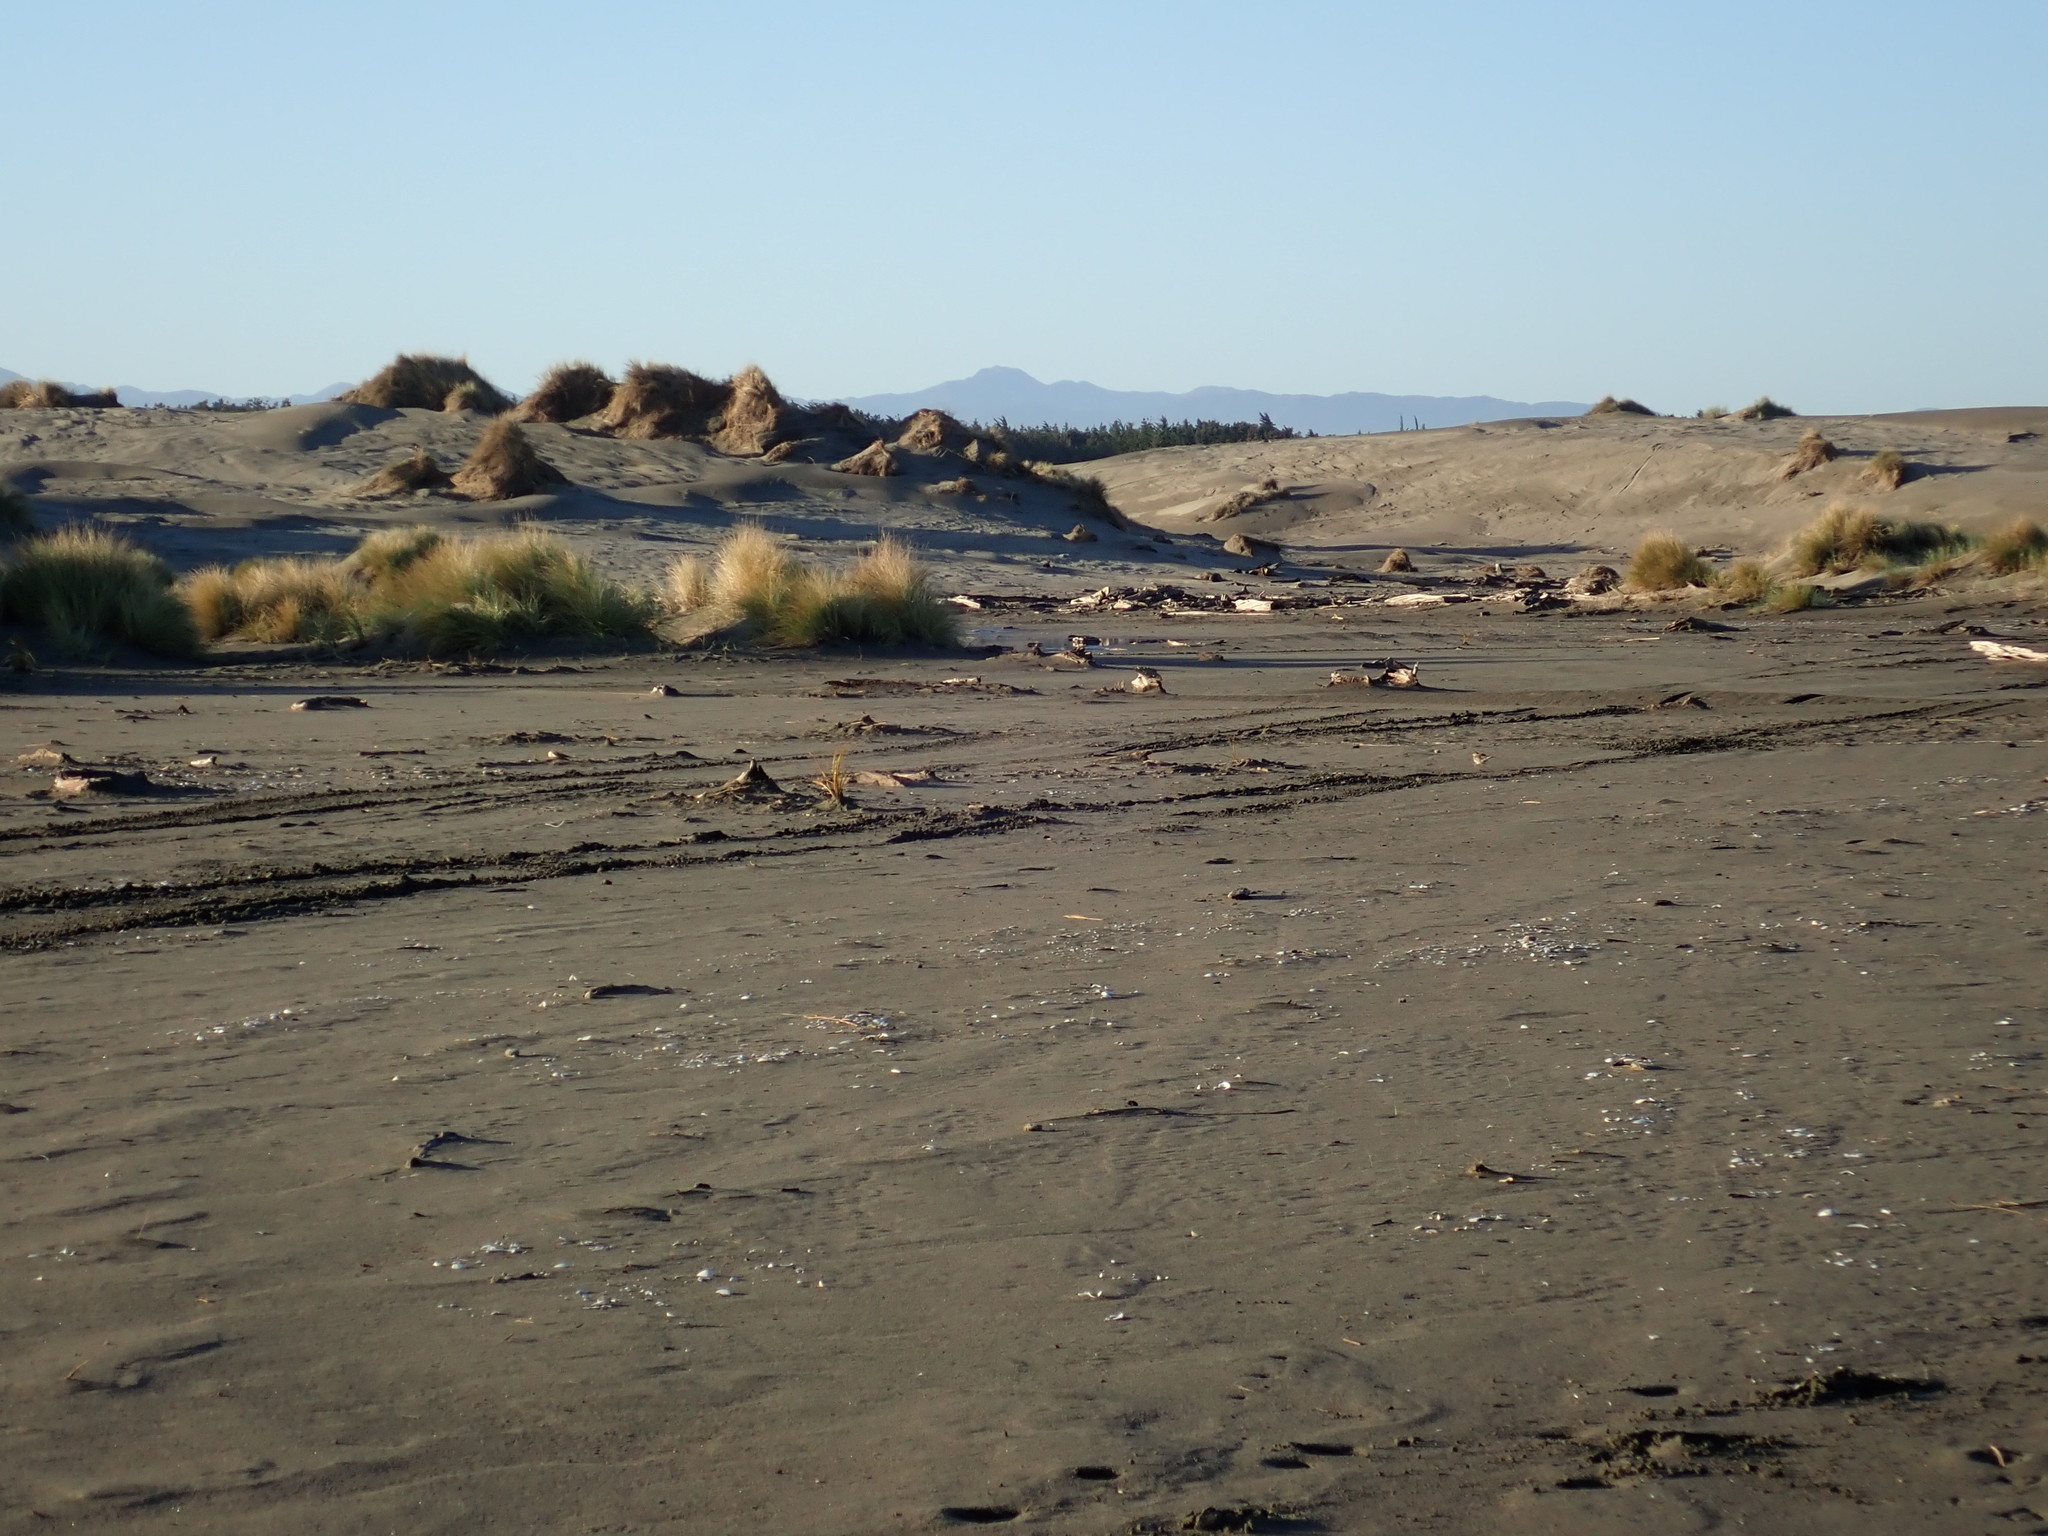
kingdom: Animalia
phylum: Chordata
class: Aves
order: Passeriformes
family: Motacillidae
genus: Anthus
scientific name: Anthus novaeseelandiae
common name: New zealand pipit
